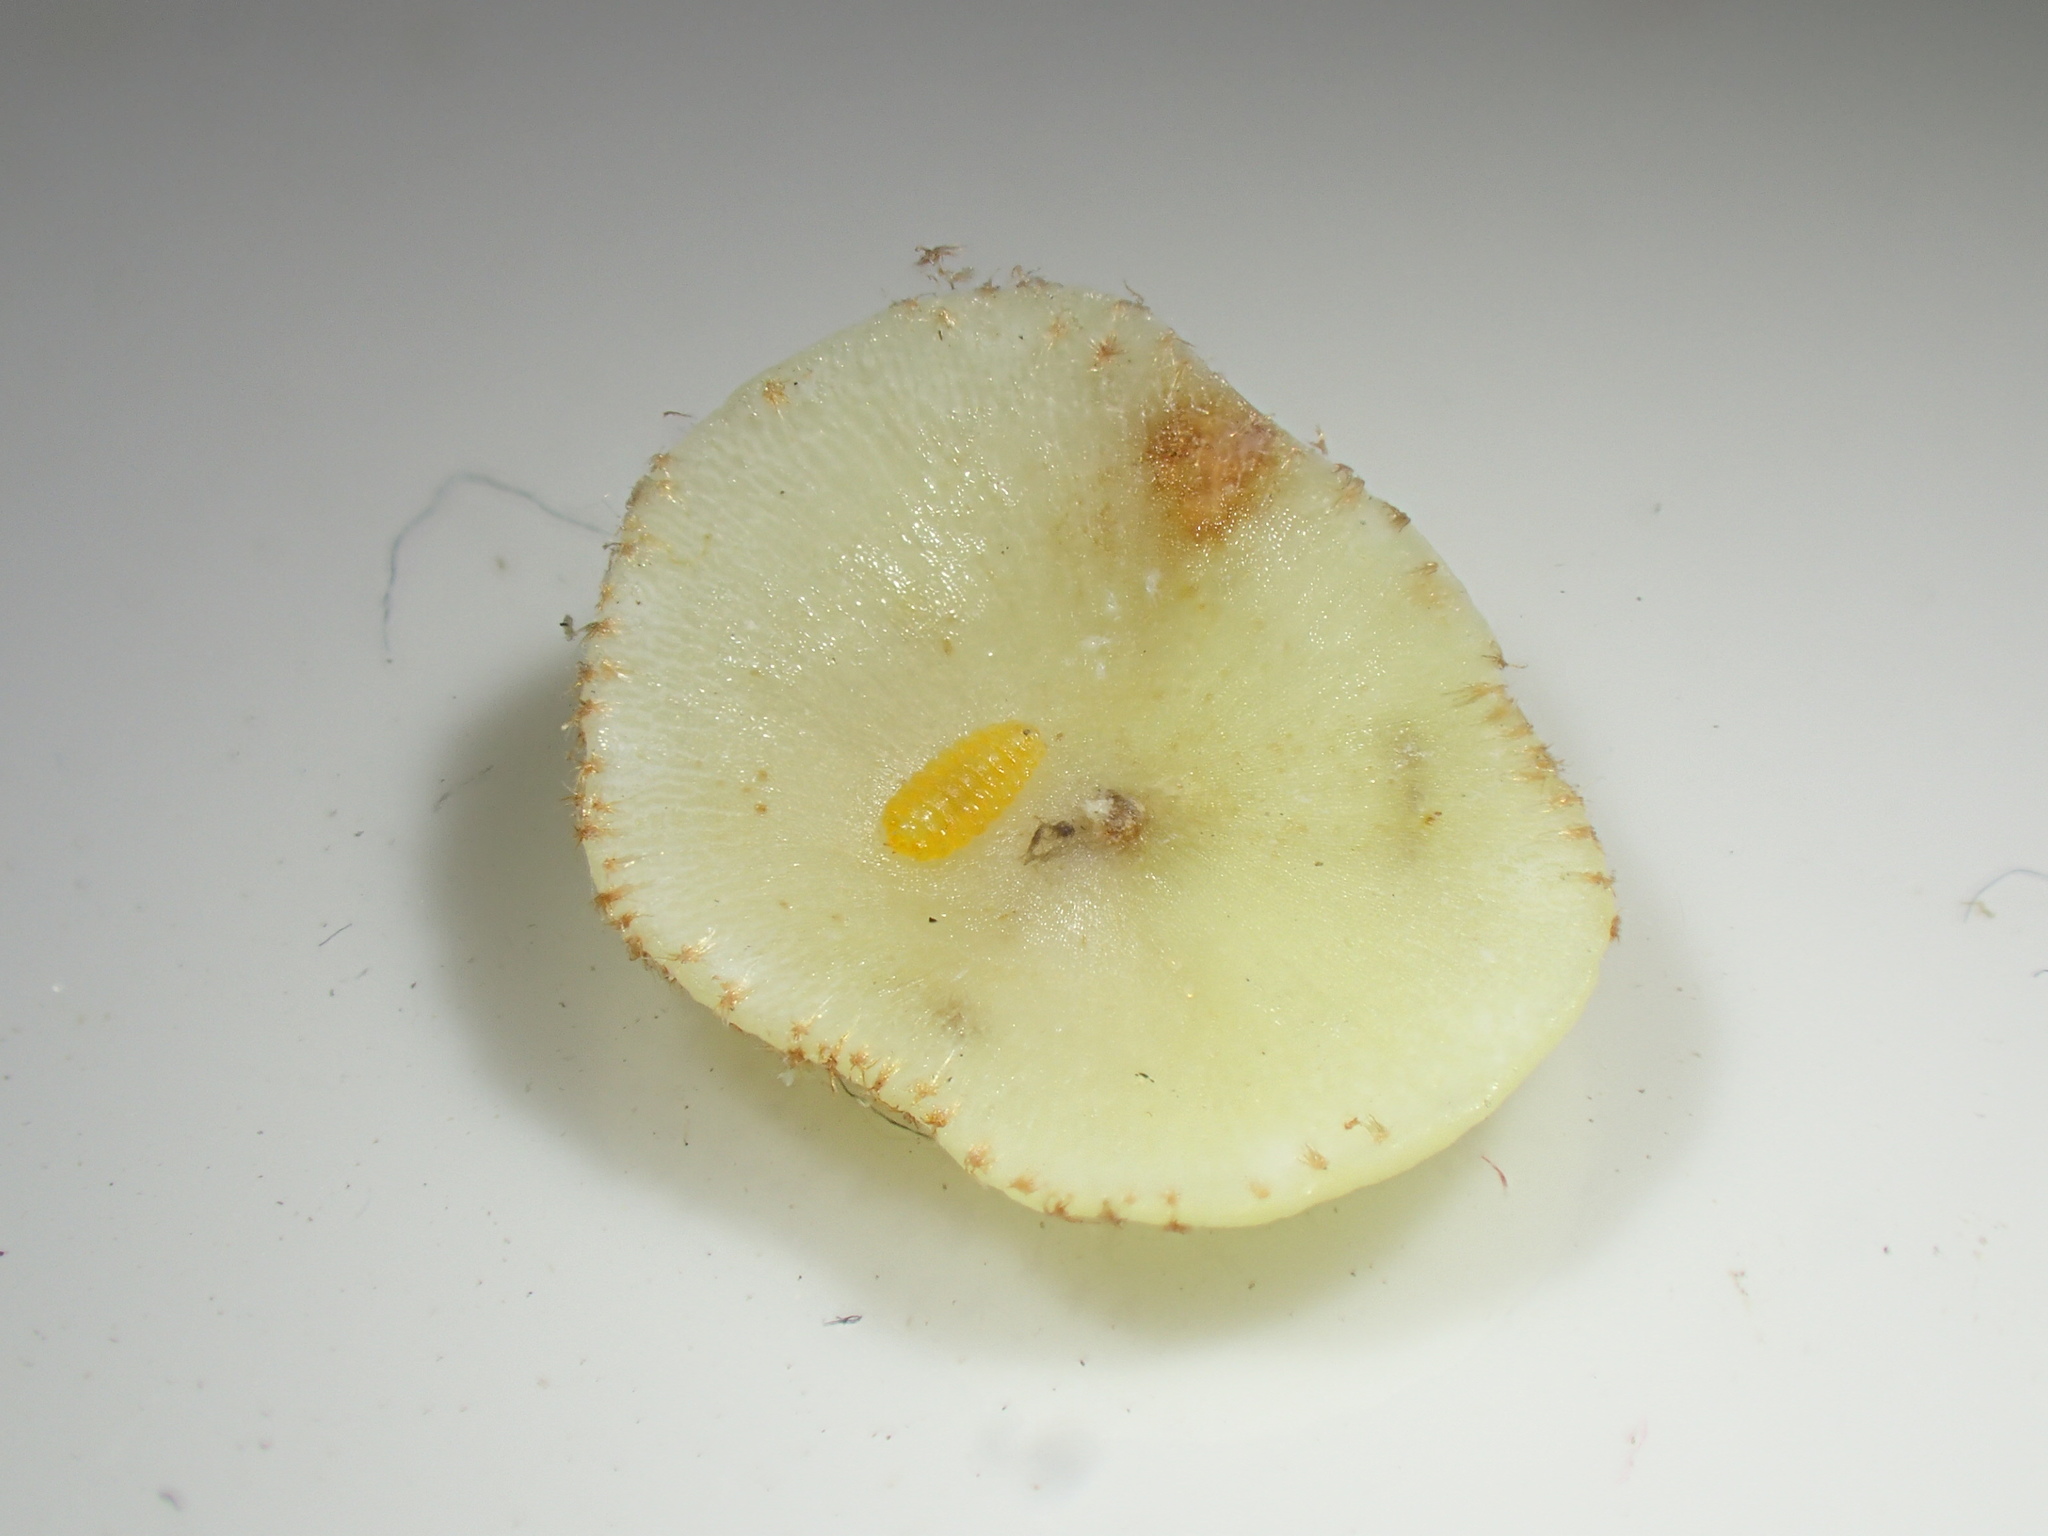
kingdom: Animalia
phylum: Arthropoda
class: Insecta
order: Diptera
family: Cecidomyiidae
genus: Parallelodiplosis
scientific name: Parallelodiplosis galliperda
